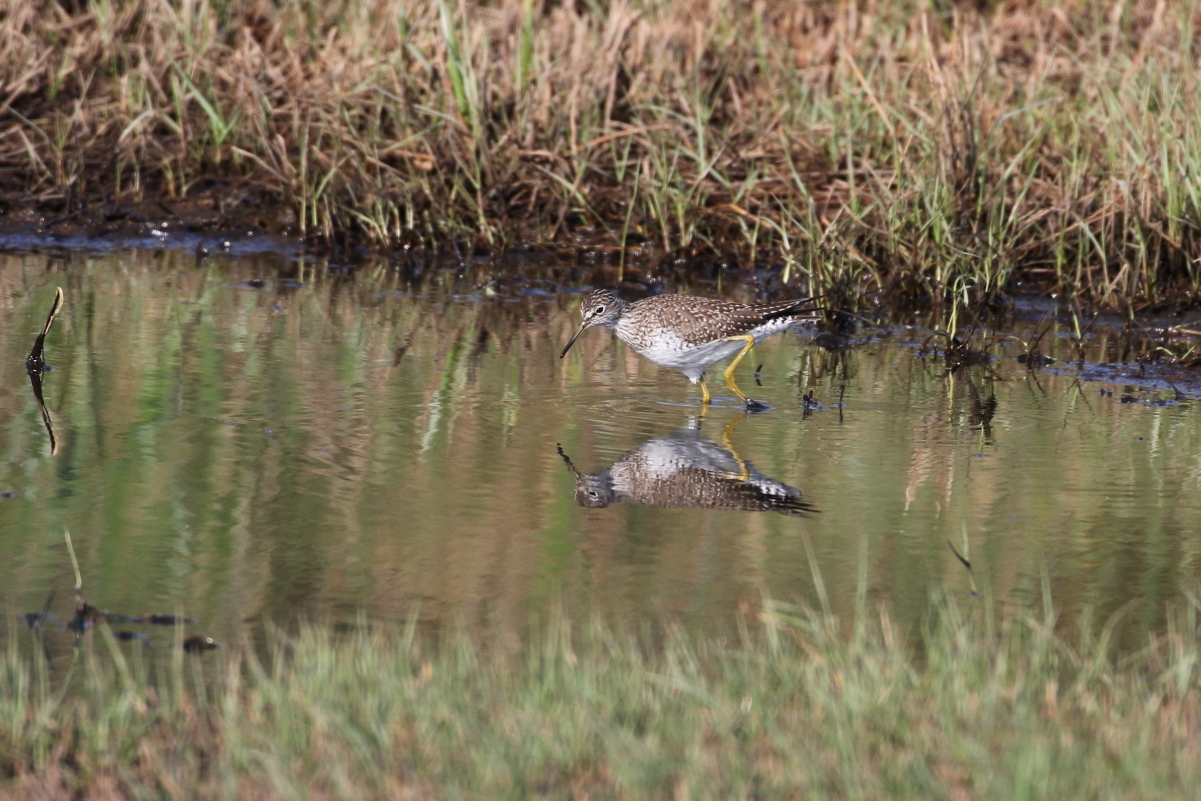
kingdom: Animalia
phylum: Chordata
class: Aves
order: Charadriiformes
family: Scolopacidae
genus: Tringa
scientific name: Tringa solitaria
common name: Solitary sandpiper
